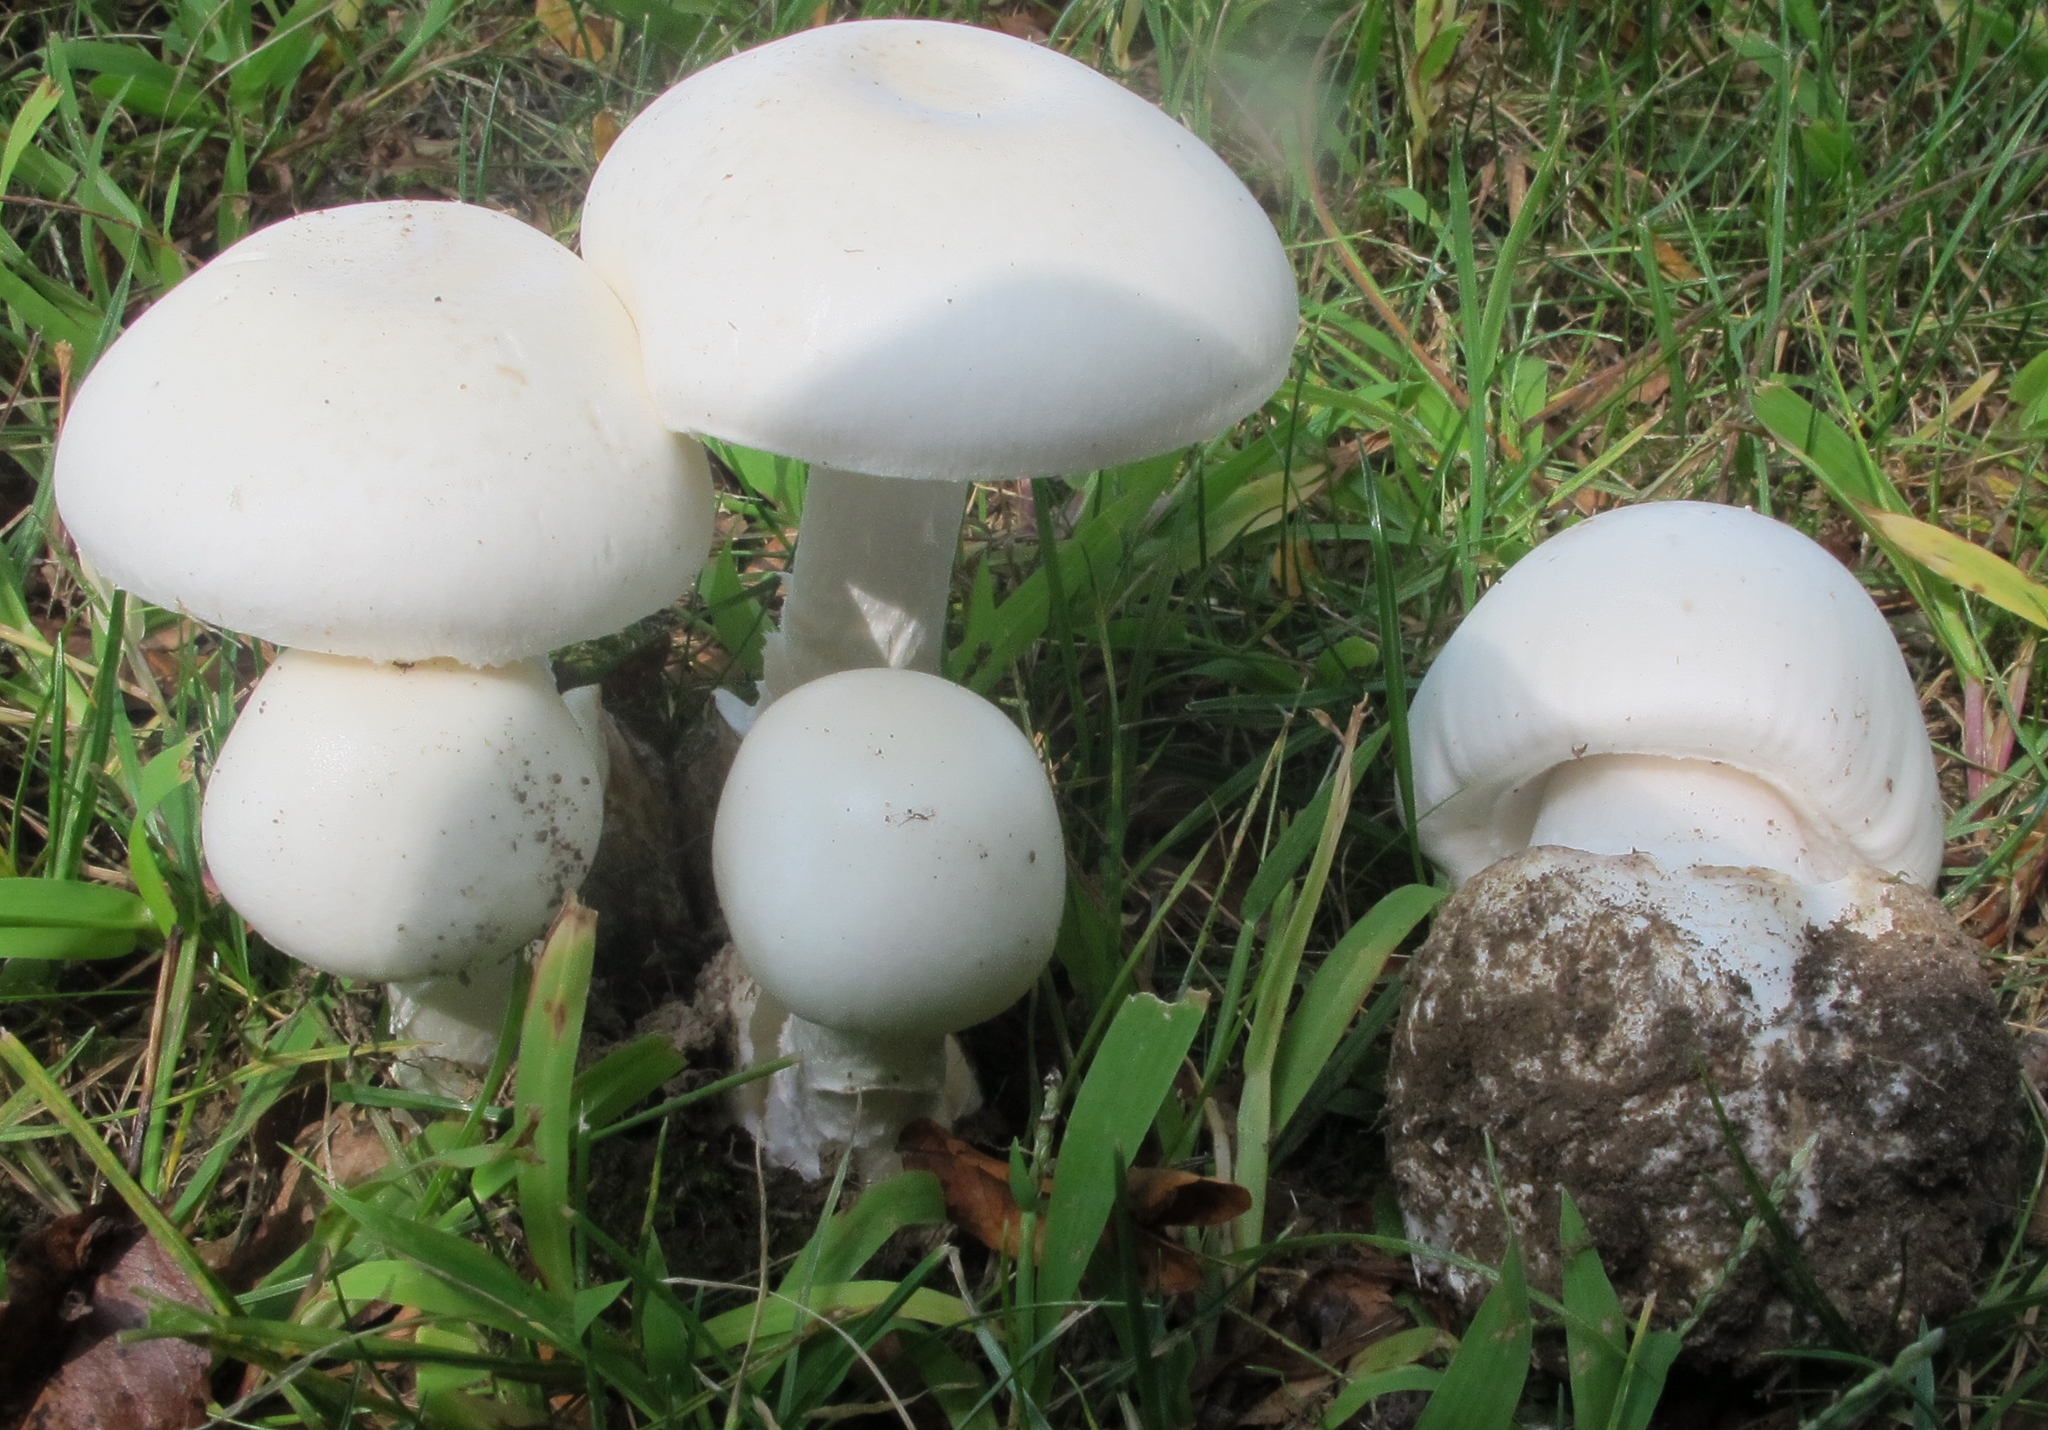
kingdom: Fungi
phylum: Basidiomycota
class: Agaricomycetes
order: Agaricales
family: Amanitaceae
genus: Amanita
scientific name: Amanita suballiacea
